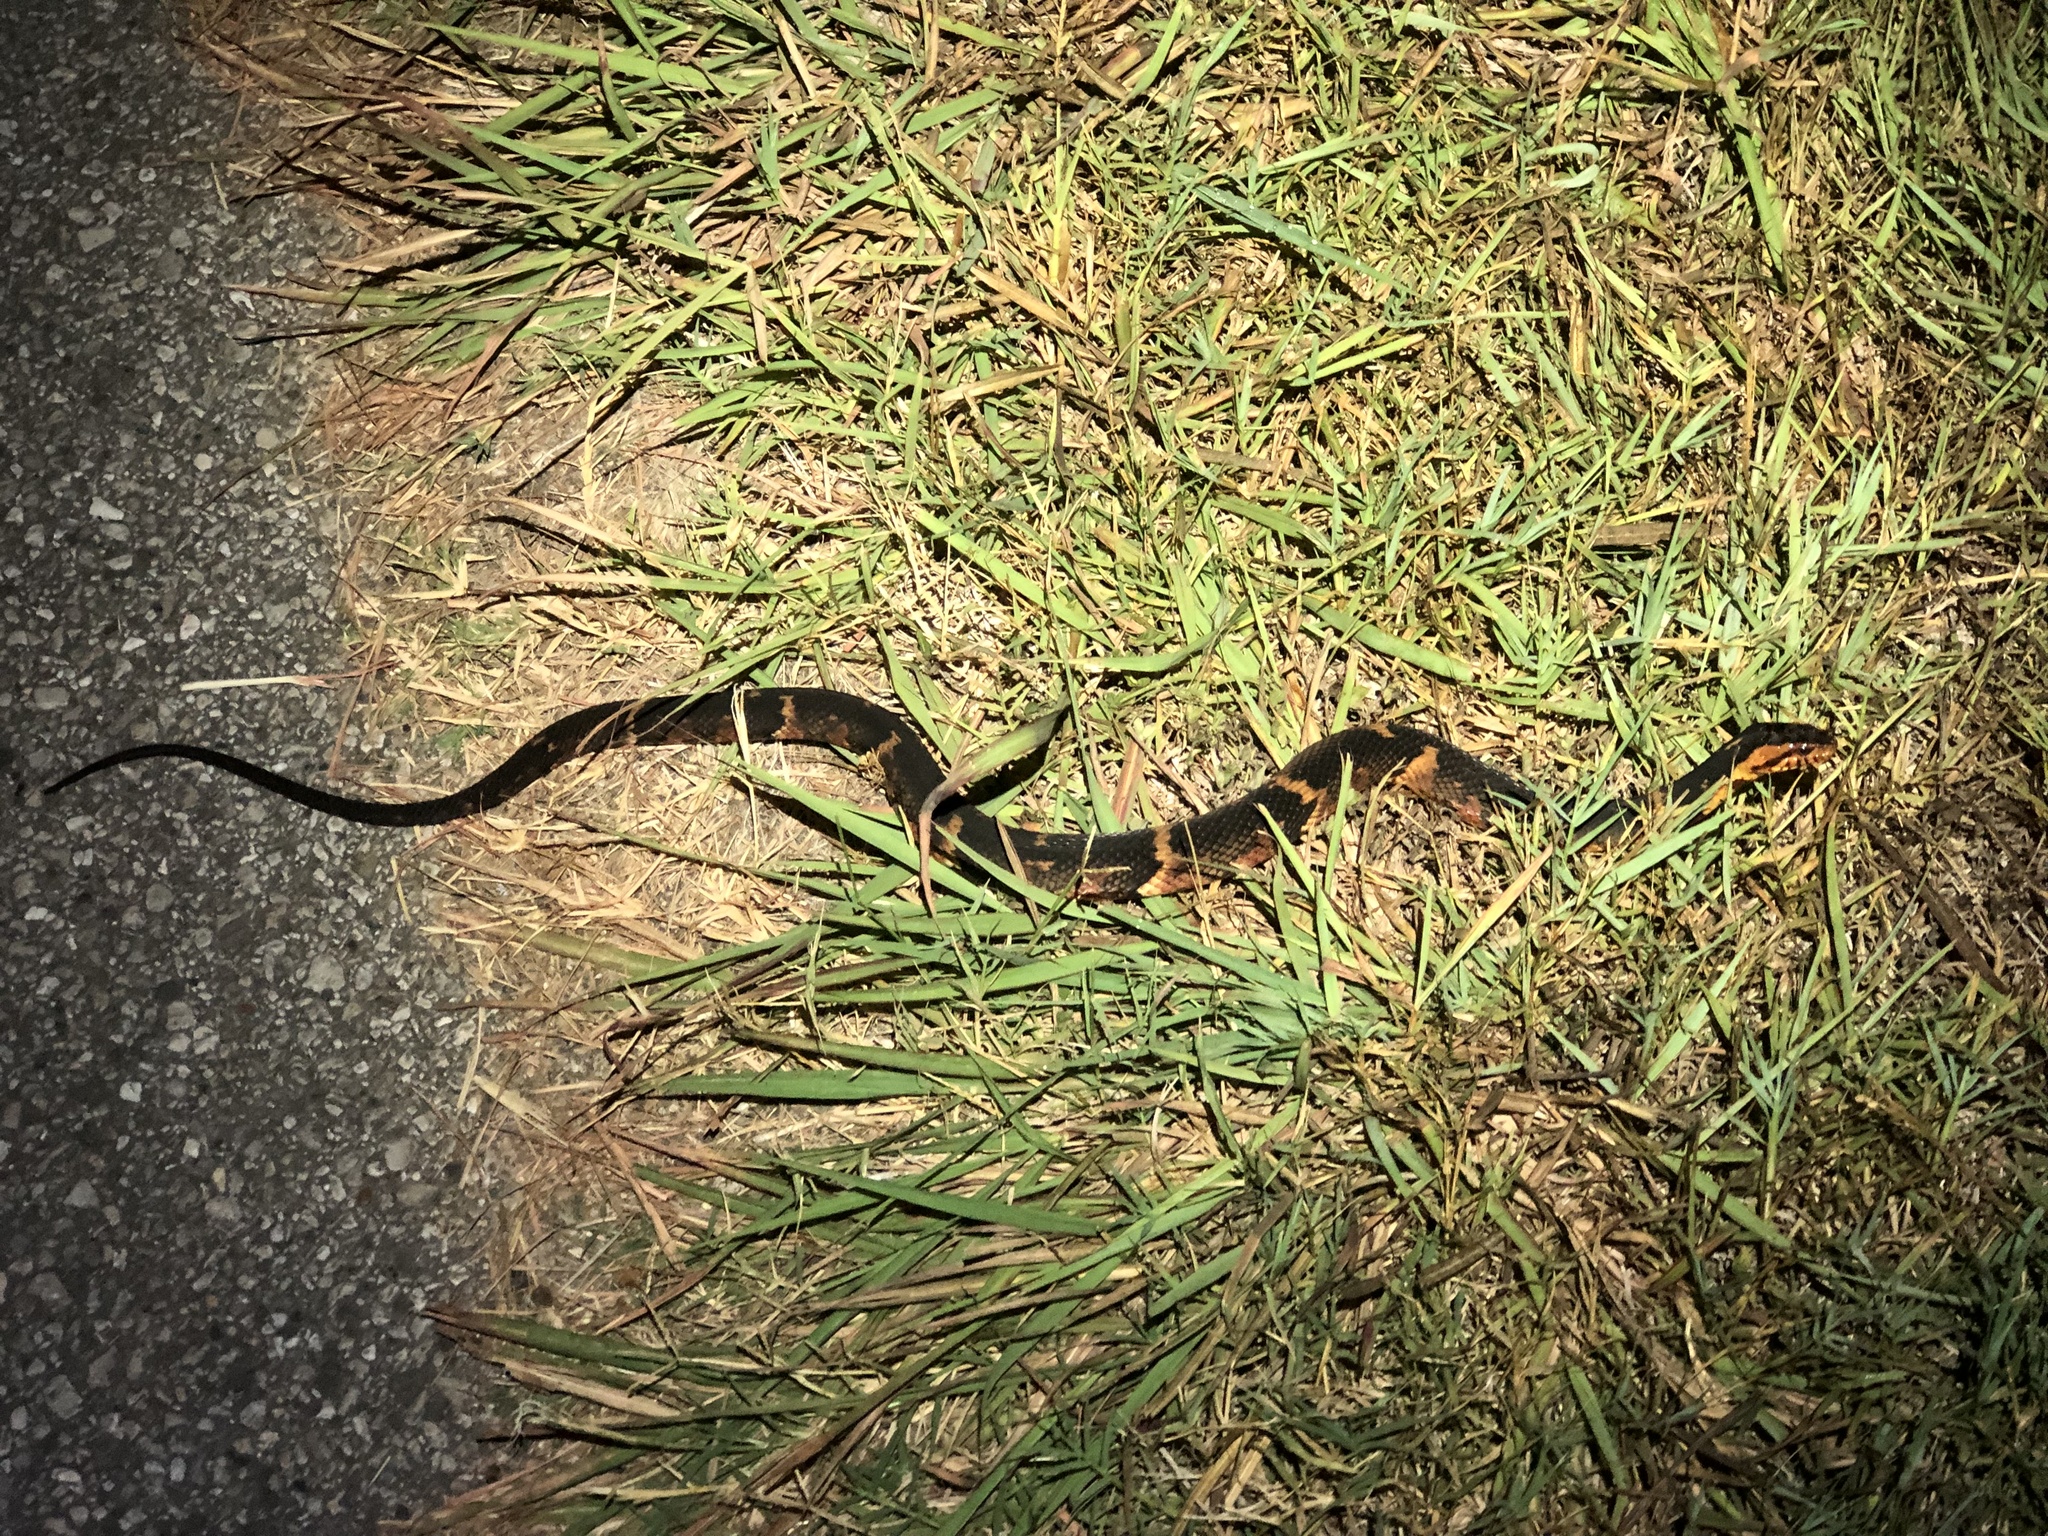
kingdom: Animalia
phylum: Chordata
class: Squamata
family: Colubridae
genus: Nerodia
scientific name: Nerodia fasciata
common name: Southern water snake
